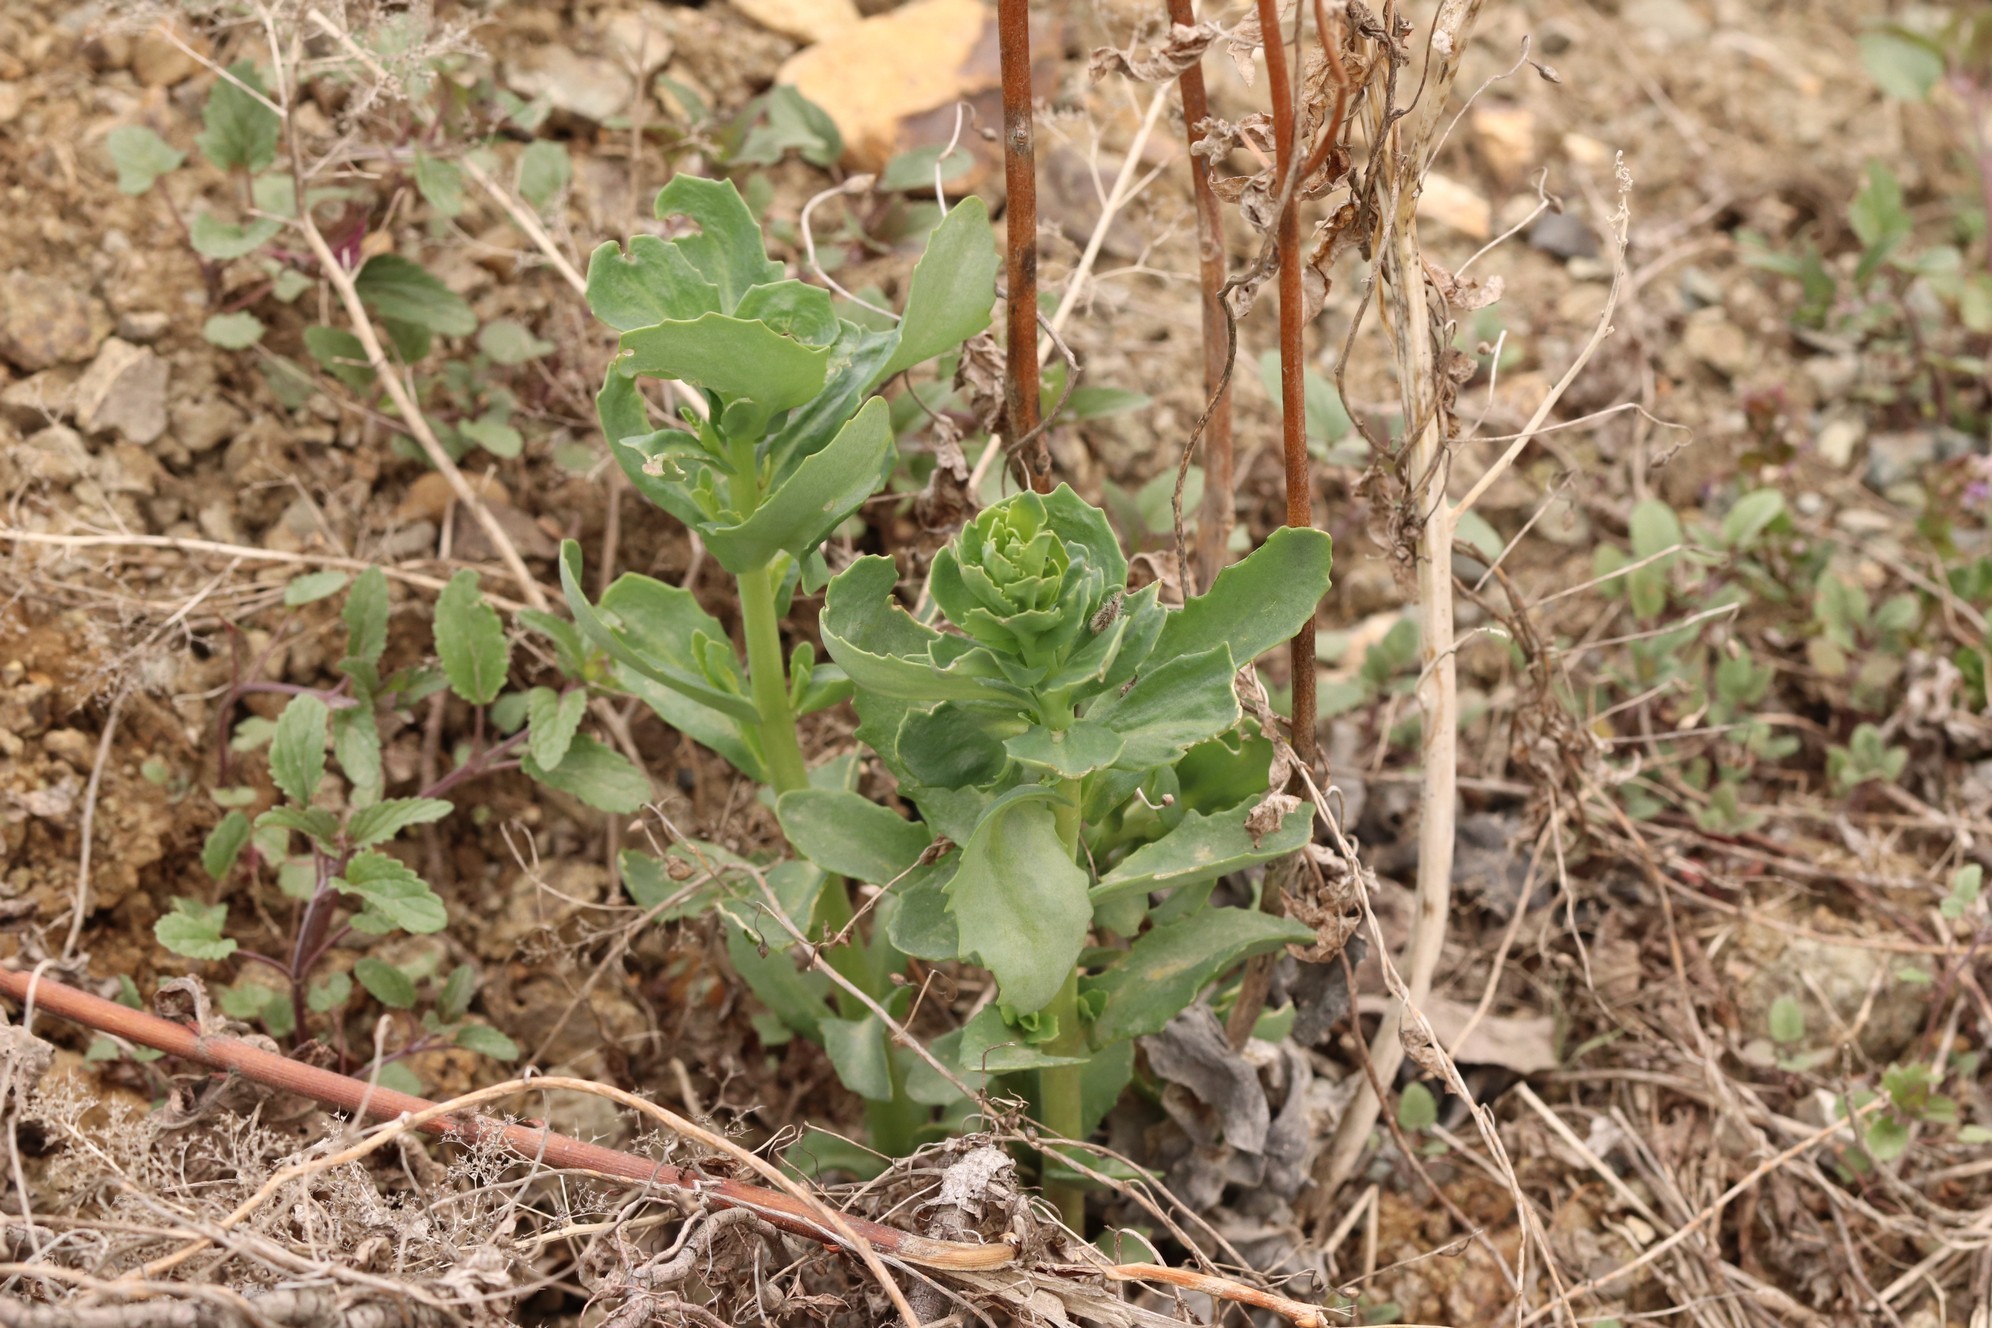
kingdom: Plantae
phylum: Tracheophyta
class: Magnoliopsida
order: Saxifragales
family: Crassulaceae
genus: Hylotelephium
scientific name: Hylotelephium telephium
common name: Live-forever
